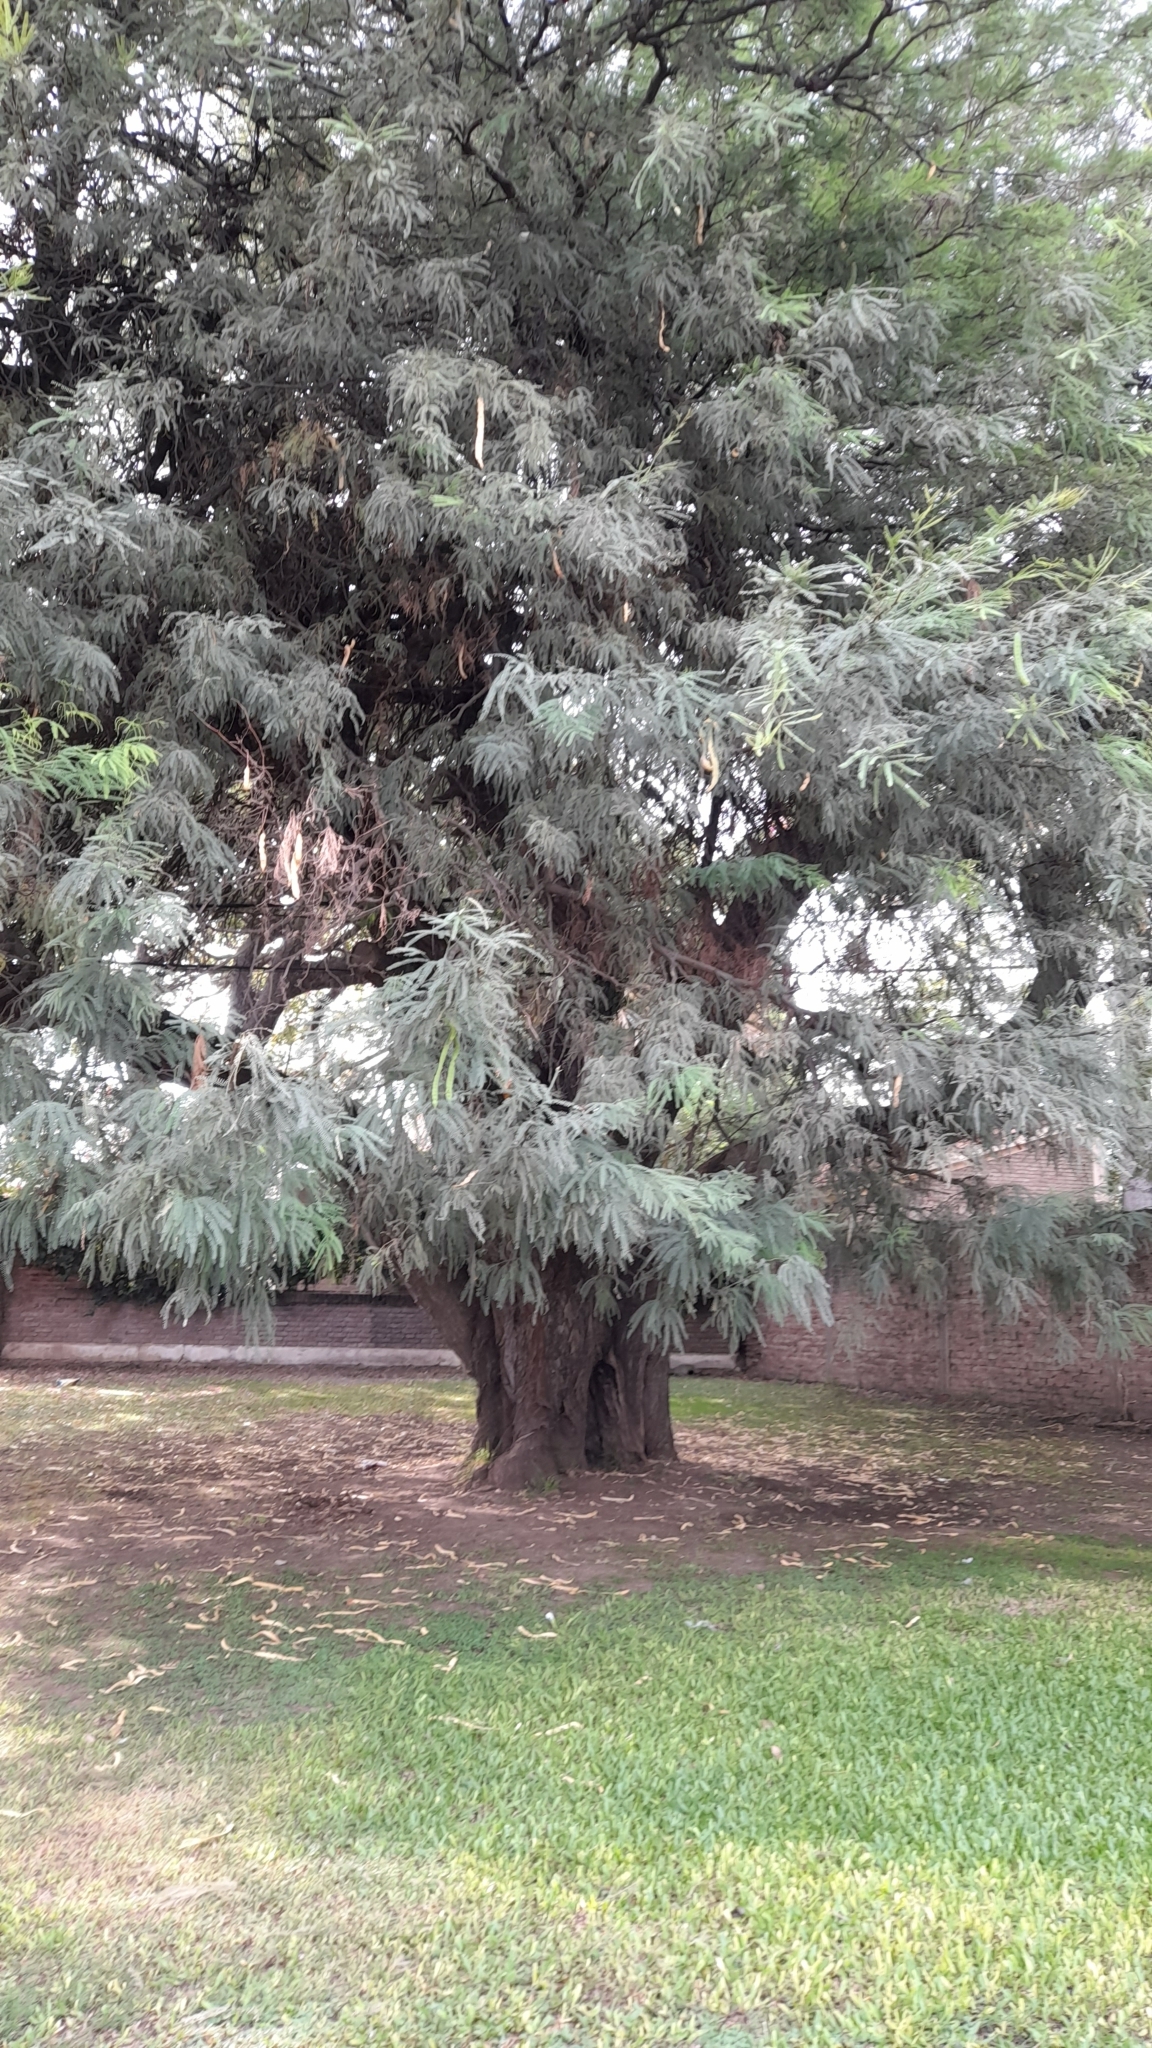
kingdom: Plantae
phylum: Tracheophyta
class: Magnoliopsida
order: Fabales
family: Fabaceae
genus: Prosopis
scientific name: Prosopis alba
